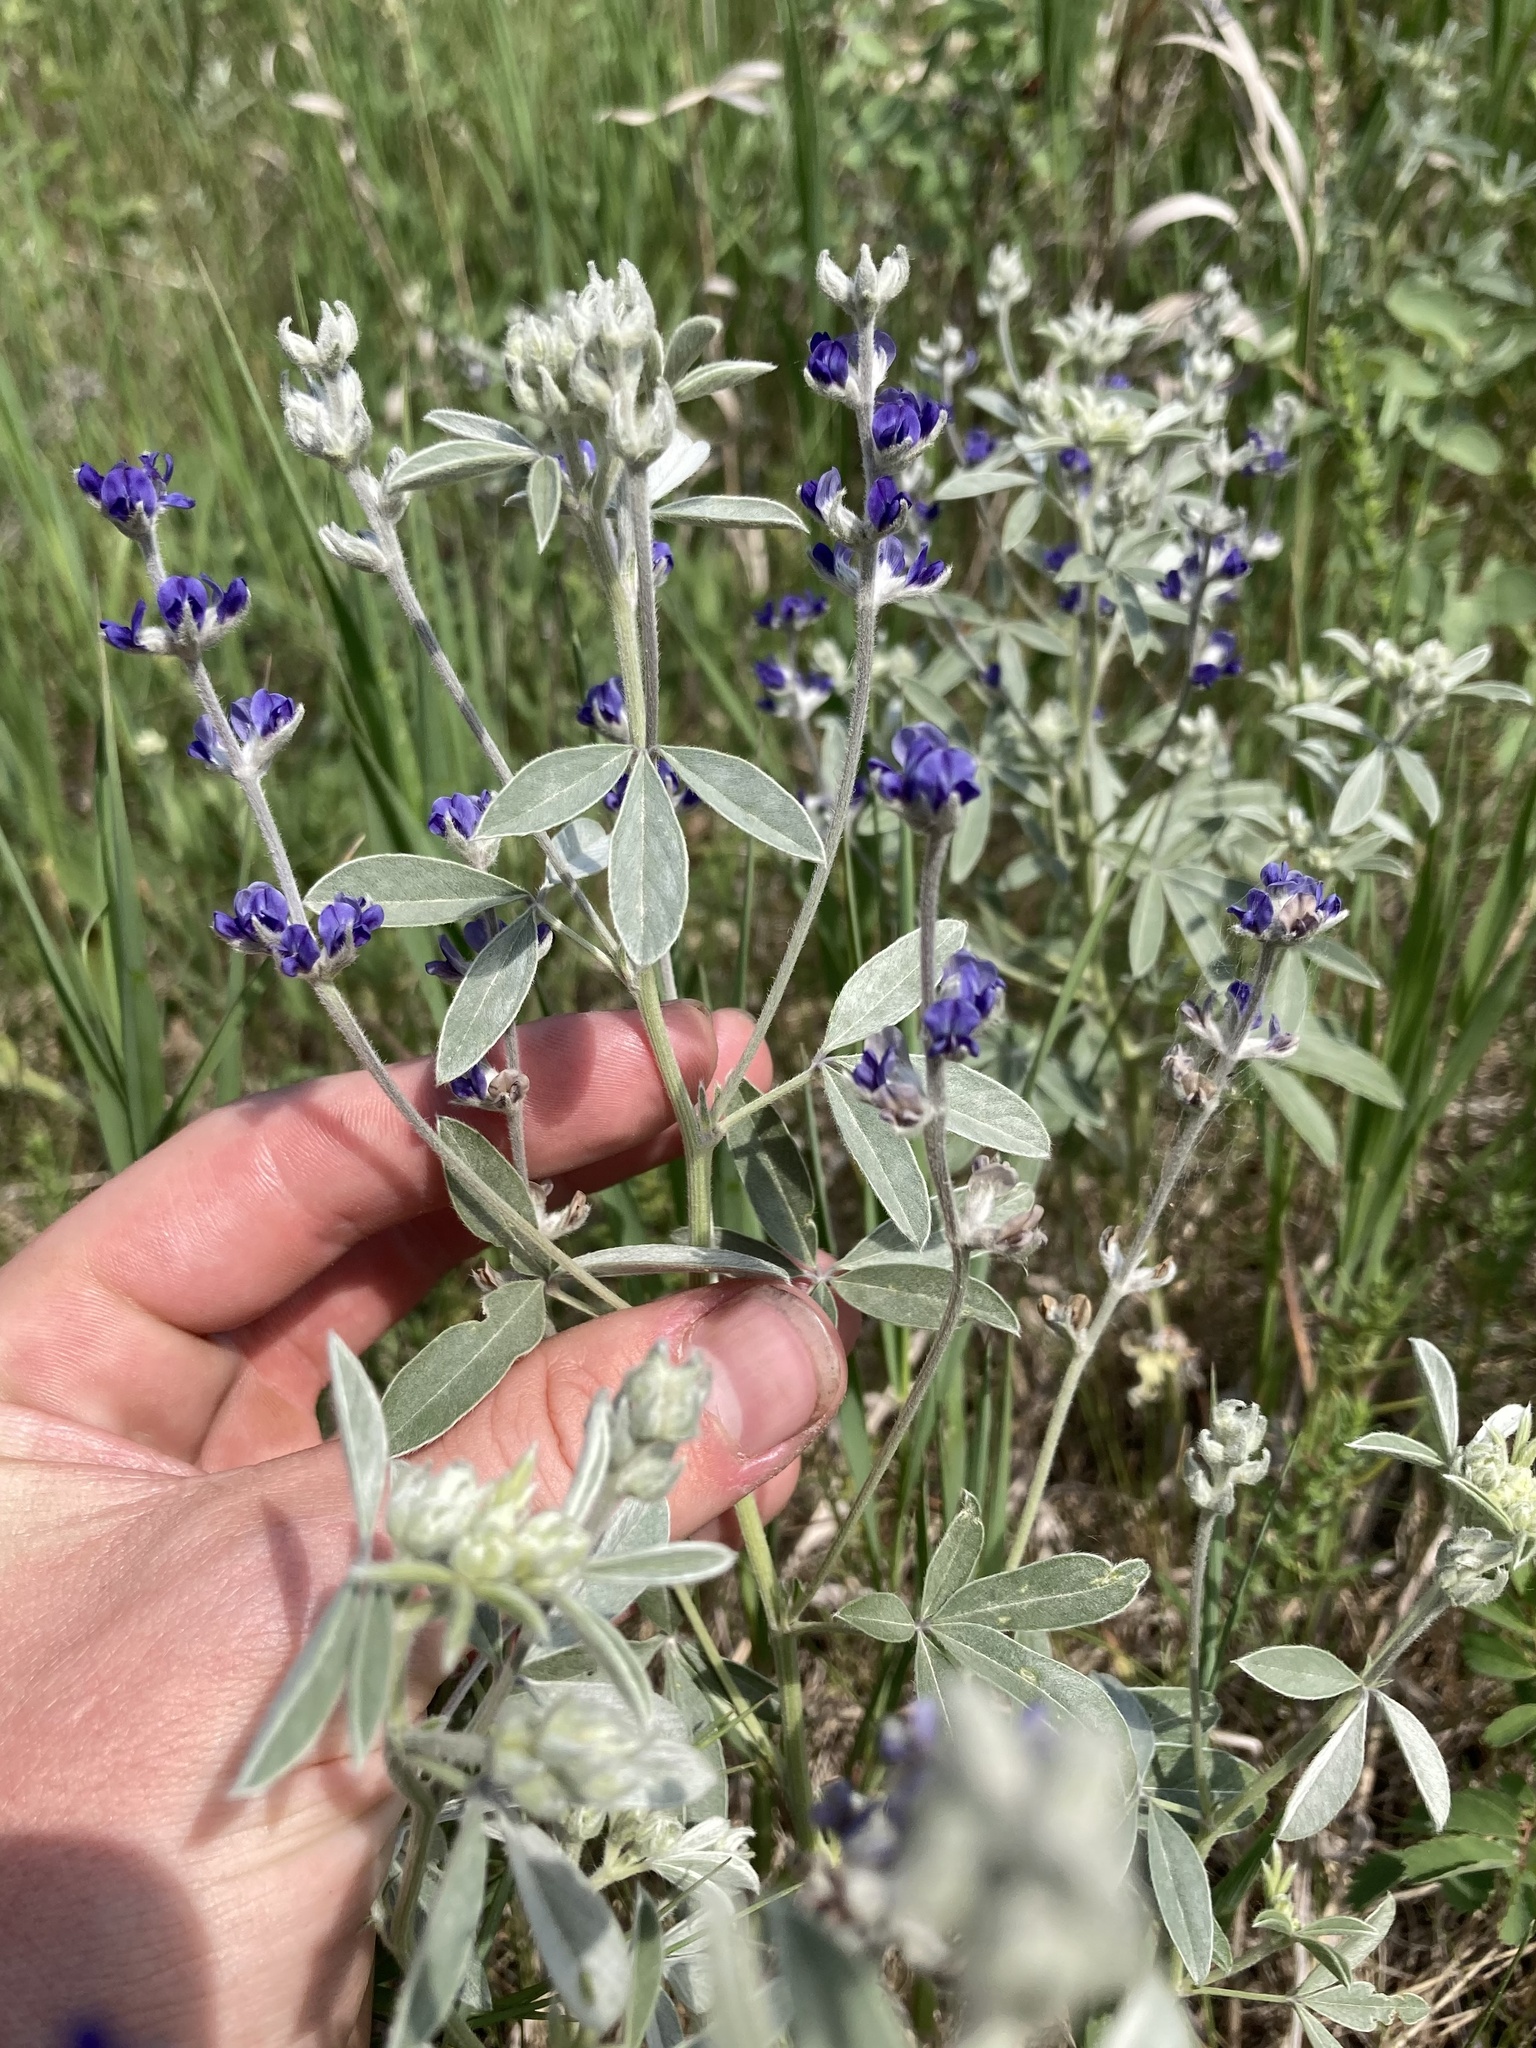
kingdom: Plantae
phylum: Tracheophyta
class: Magnoliopsida
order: Fabales
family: Fabaceae
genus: Pediomelum
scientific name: Pediomelum argophyllum
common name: Silver-leaved indian breadroot
